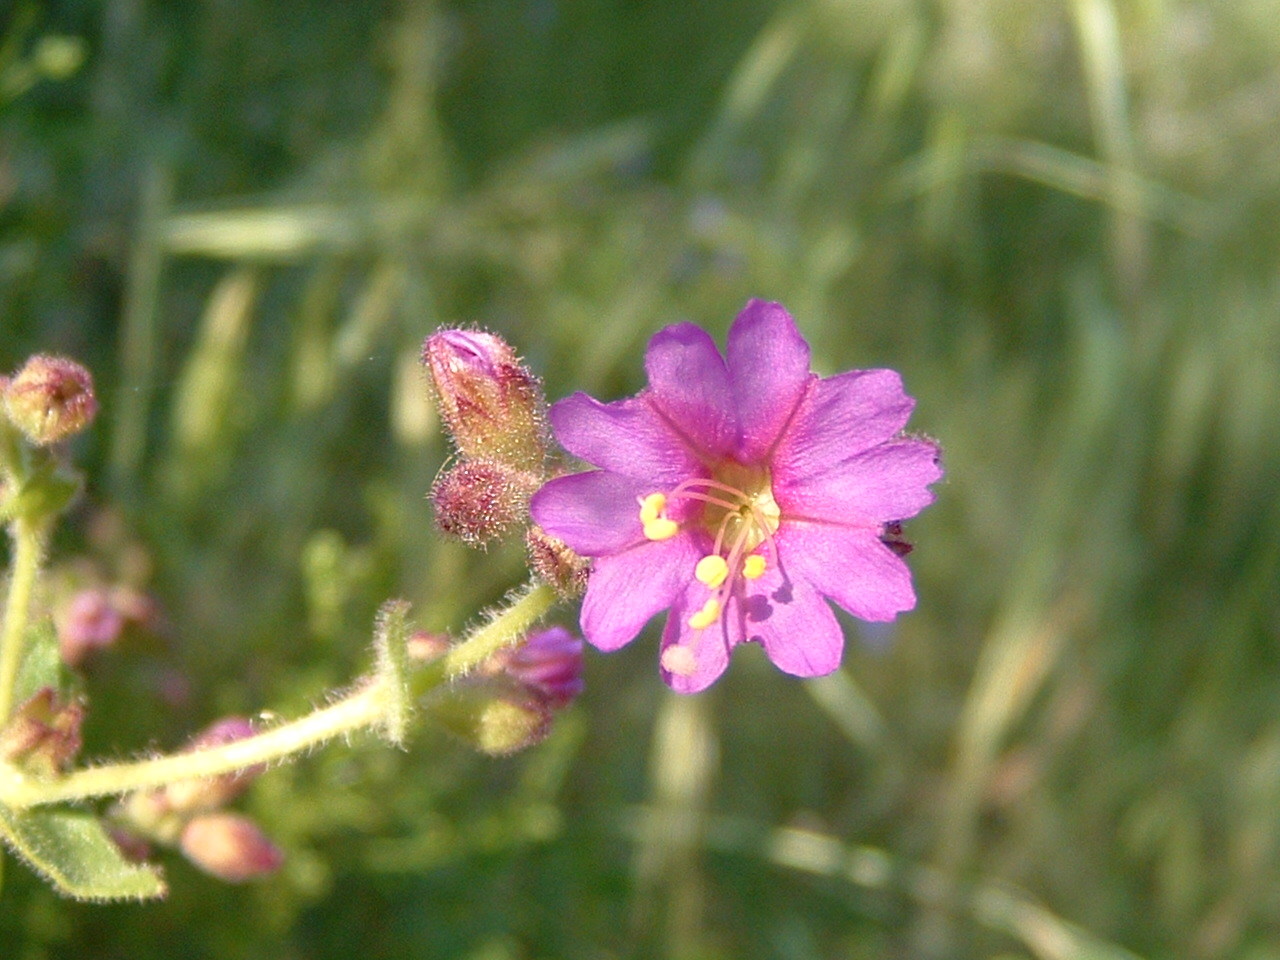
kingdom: Plantae
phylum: Tracheophyta
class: Magnoliopsida
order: Caryophyllales
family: Nyctaginaceae
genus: Mirabilis
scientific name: Mirabilis laevis
